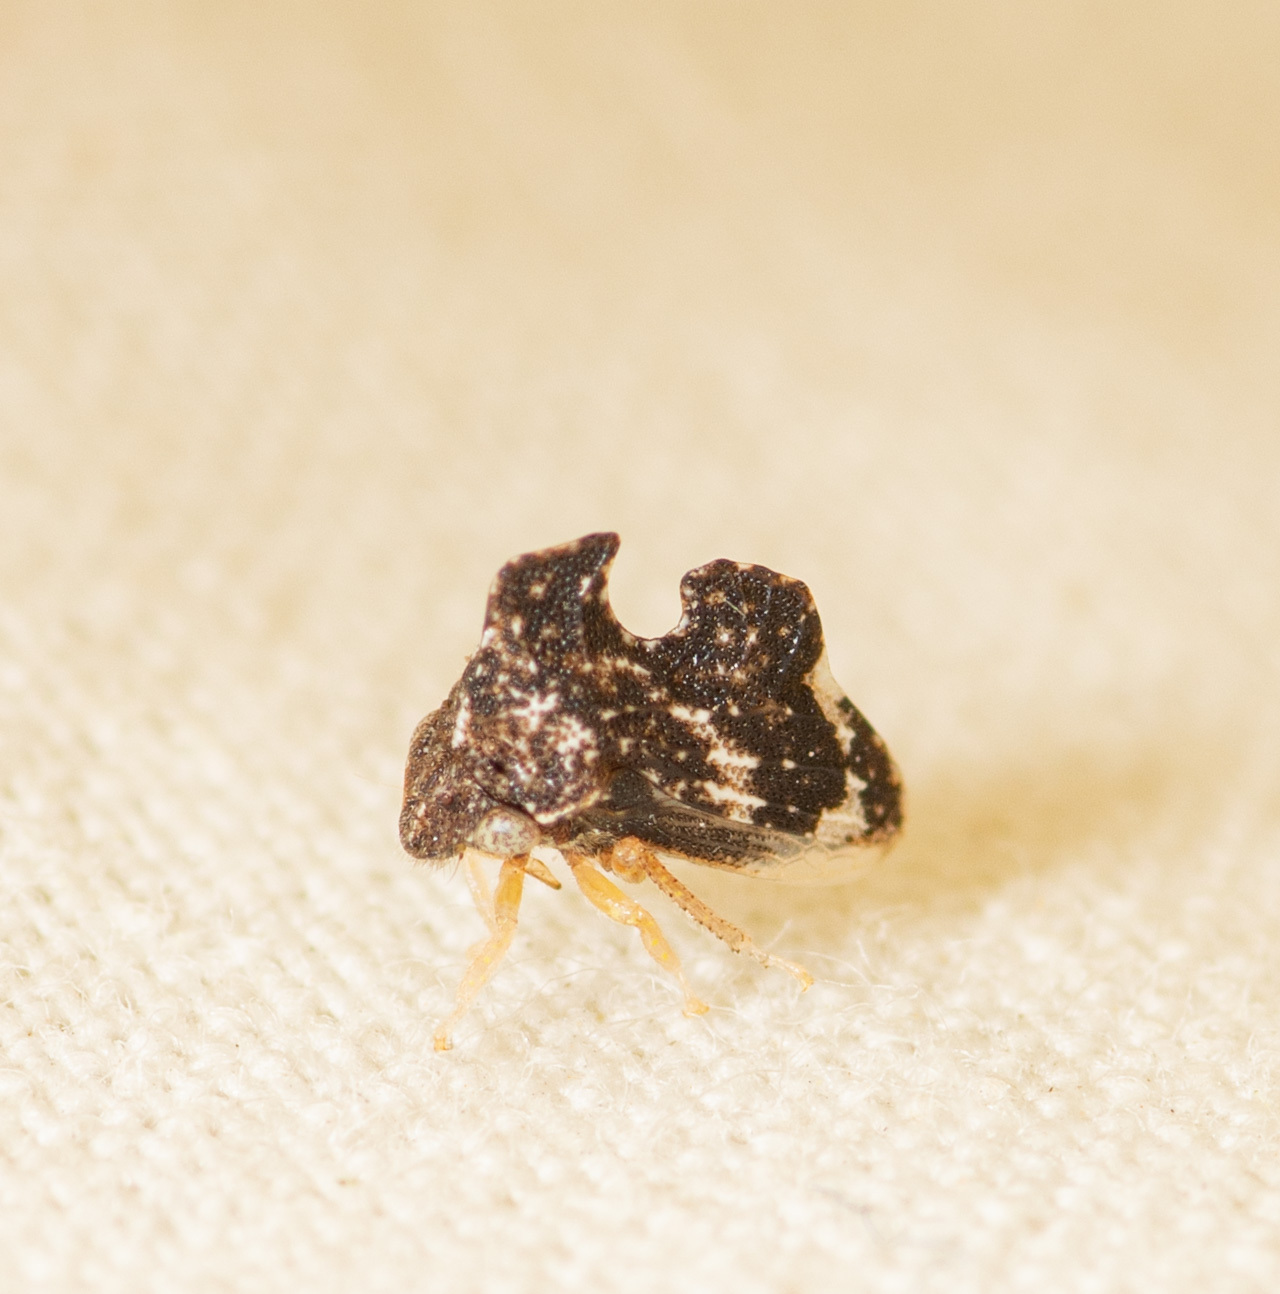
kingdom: Animalia
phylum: Arthropoda
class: Insecta
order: Hemiptera
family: Membracidae
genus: Entylia
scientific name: Entylia carinata
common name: Keeled treehopper
